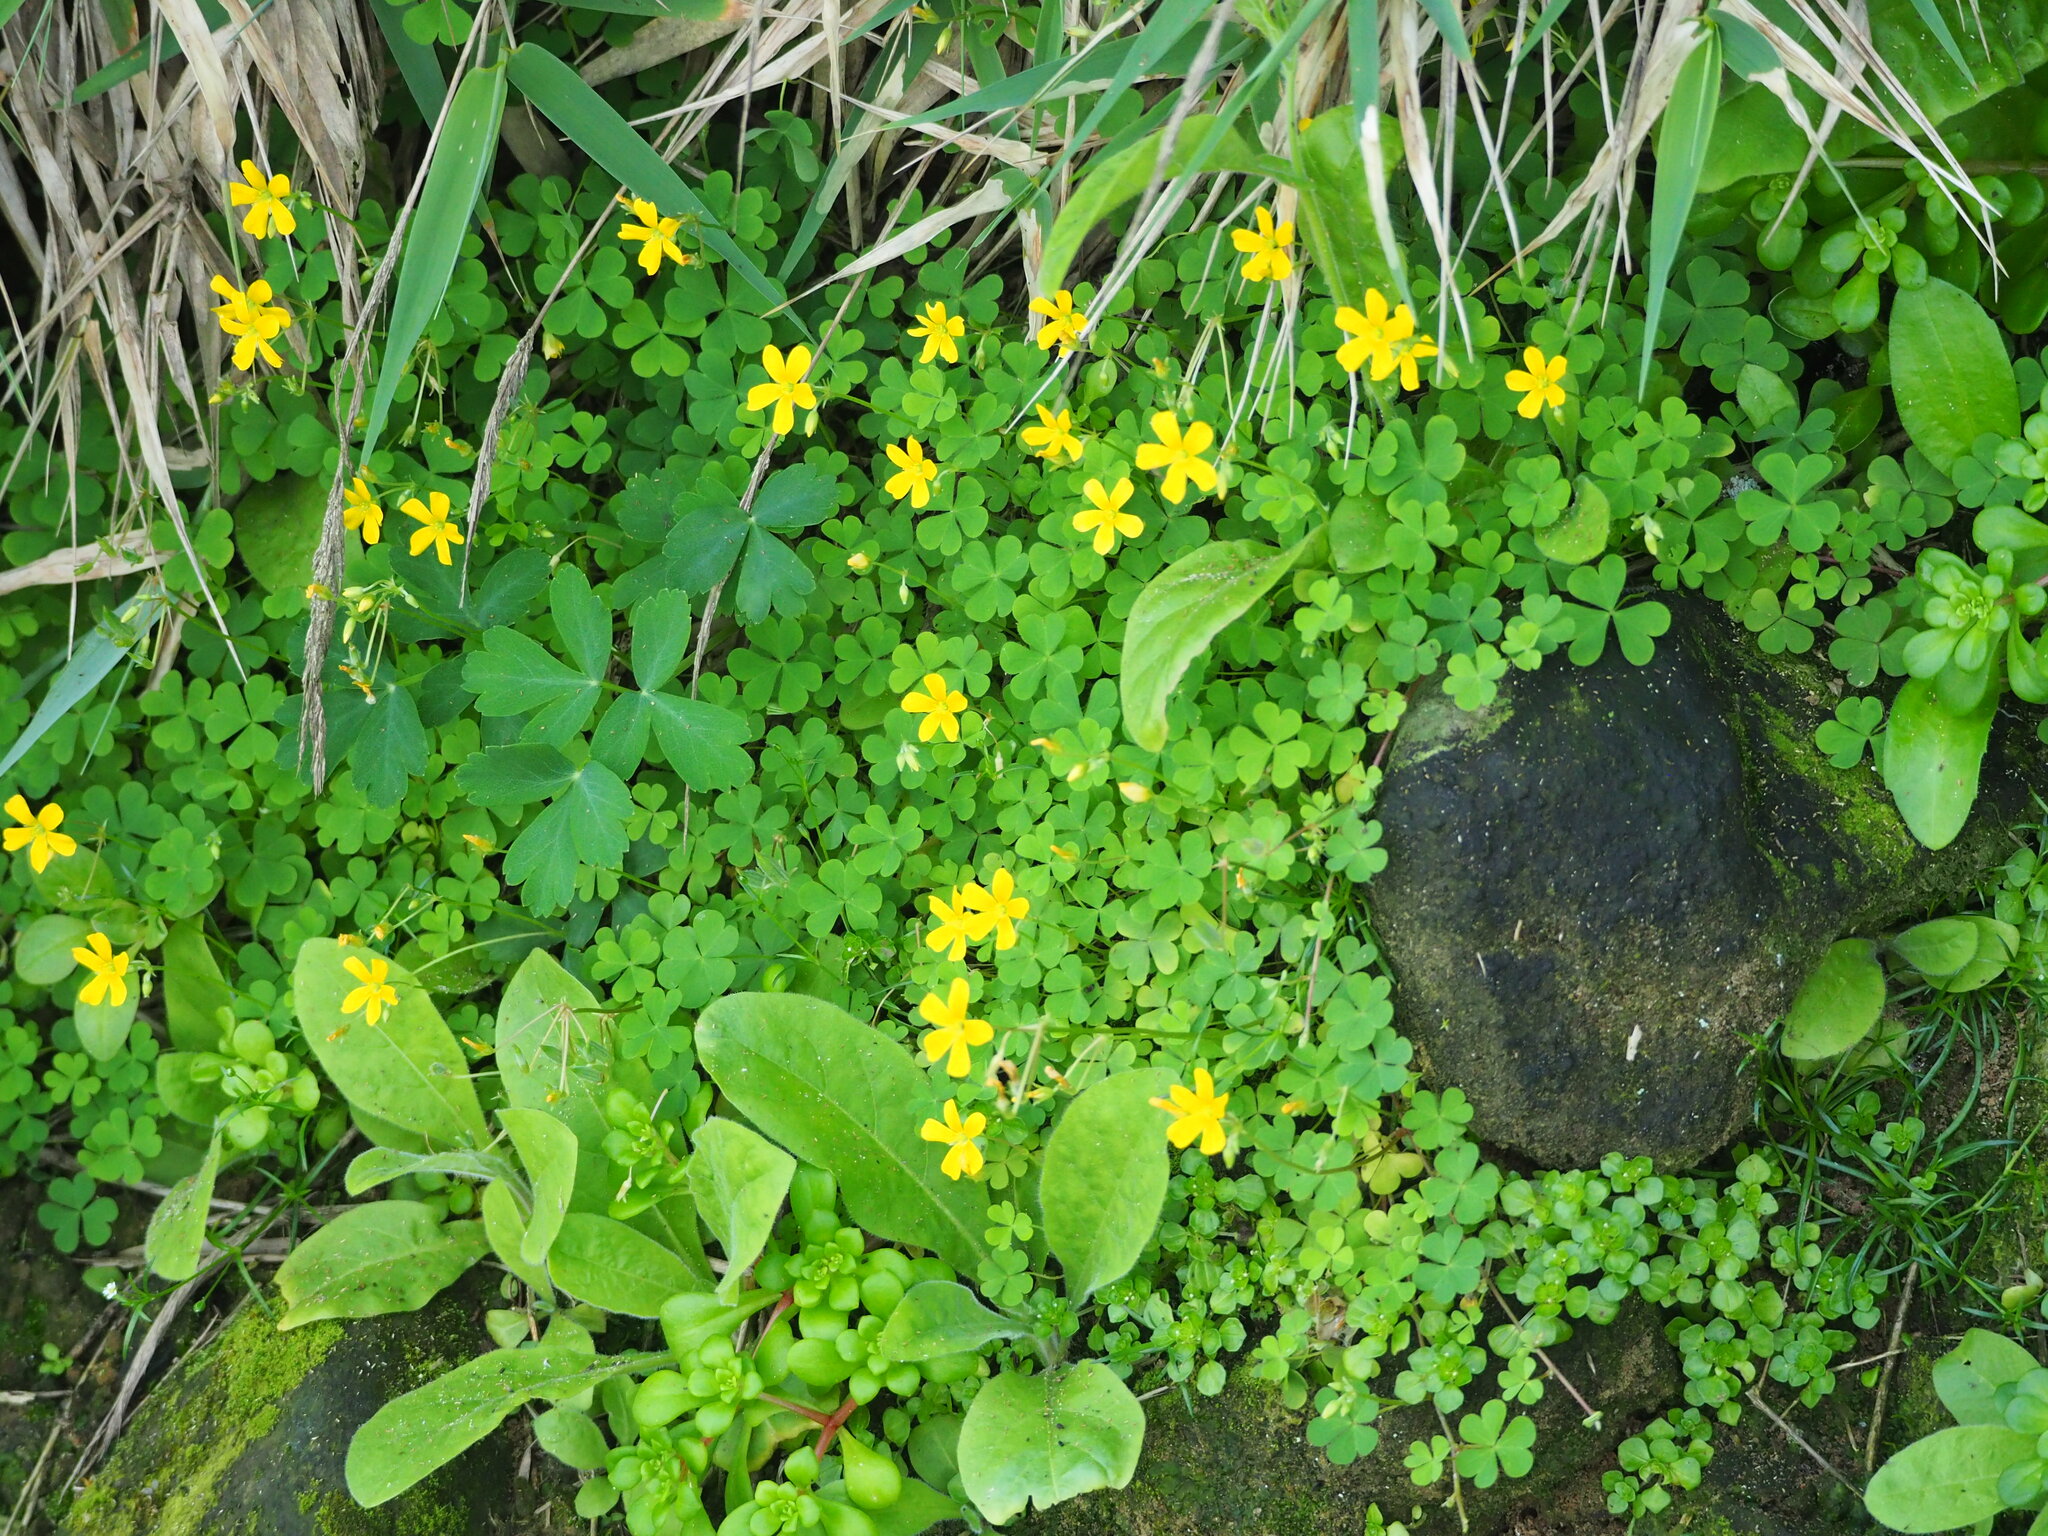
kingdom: Plantae
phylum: Tracheophyta
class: Magnoliopsida
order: Oxalidales
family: Oxalidaceae
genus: Oxalis
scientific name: Oxalis corniculata
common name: Procumbent yellow-sorrel
